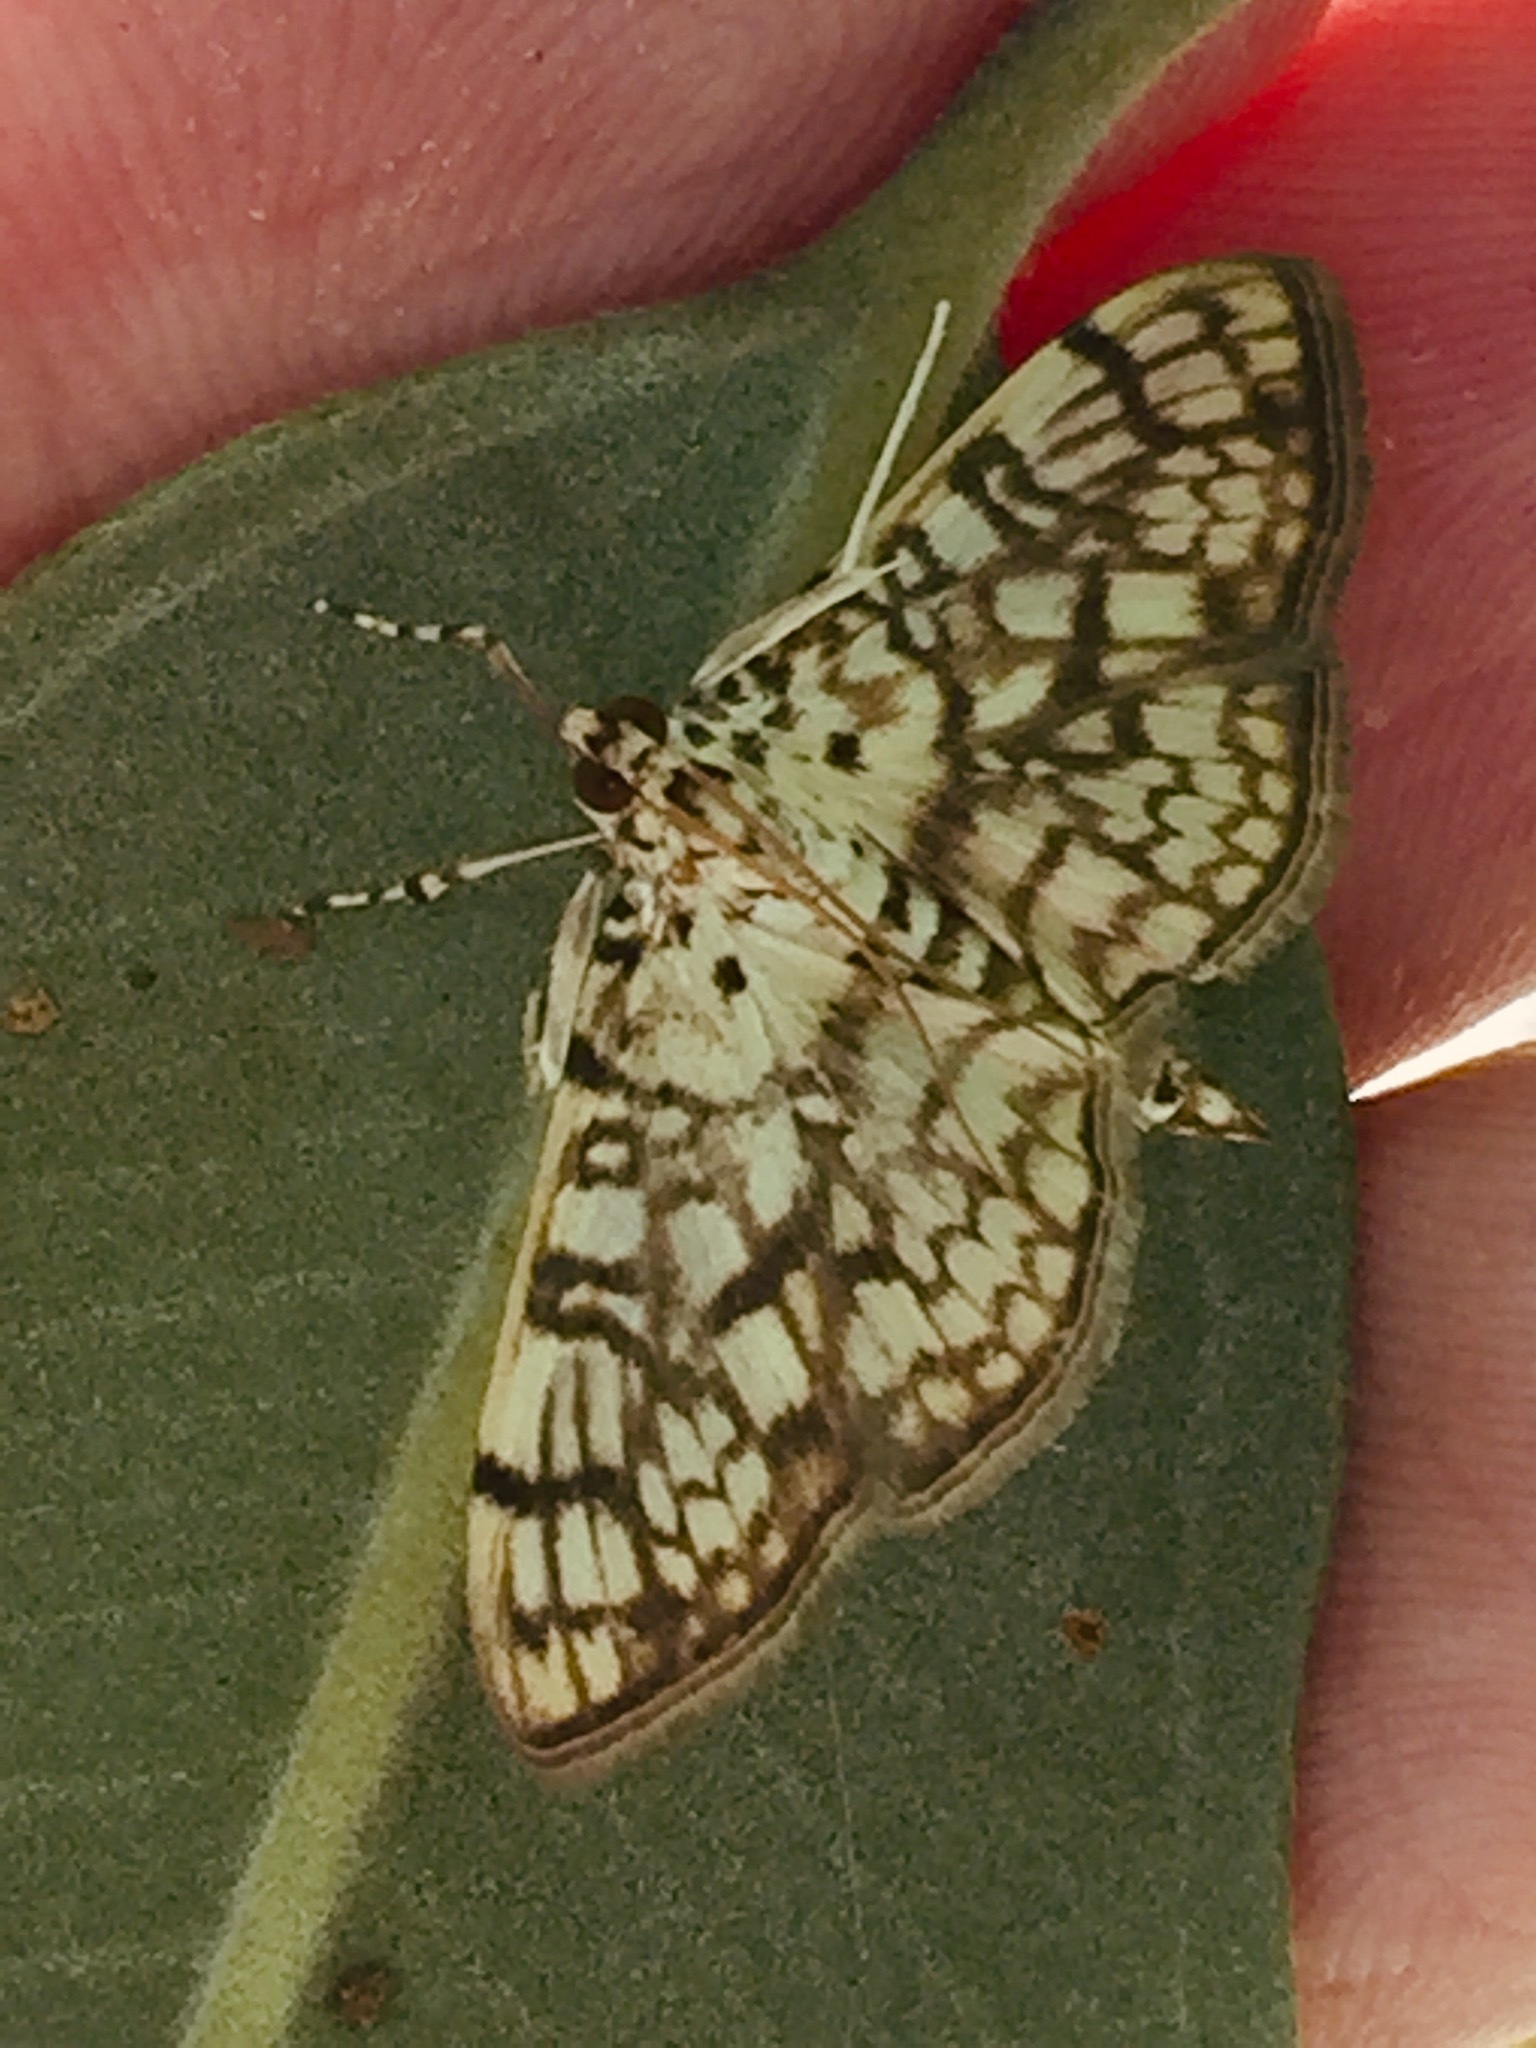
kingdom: Animalia
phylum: Arthropoda
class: Insecta
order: Lepidoptera
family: Crambidae
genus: Haritalodes
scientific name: Haritalodes derogata
